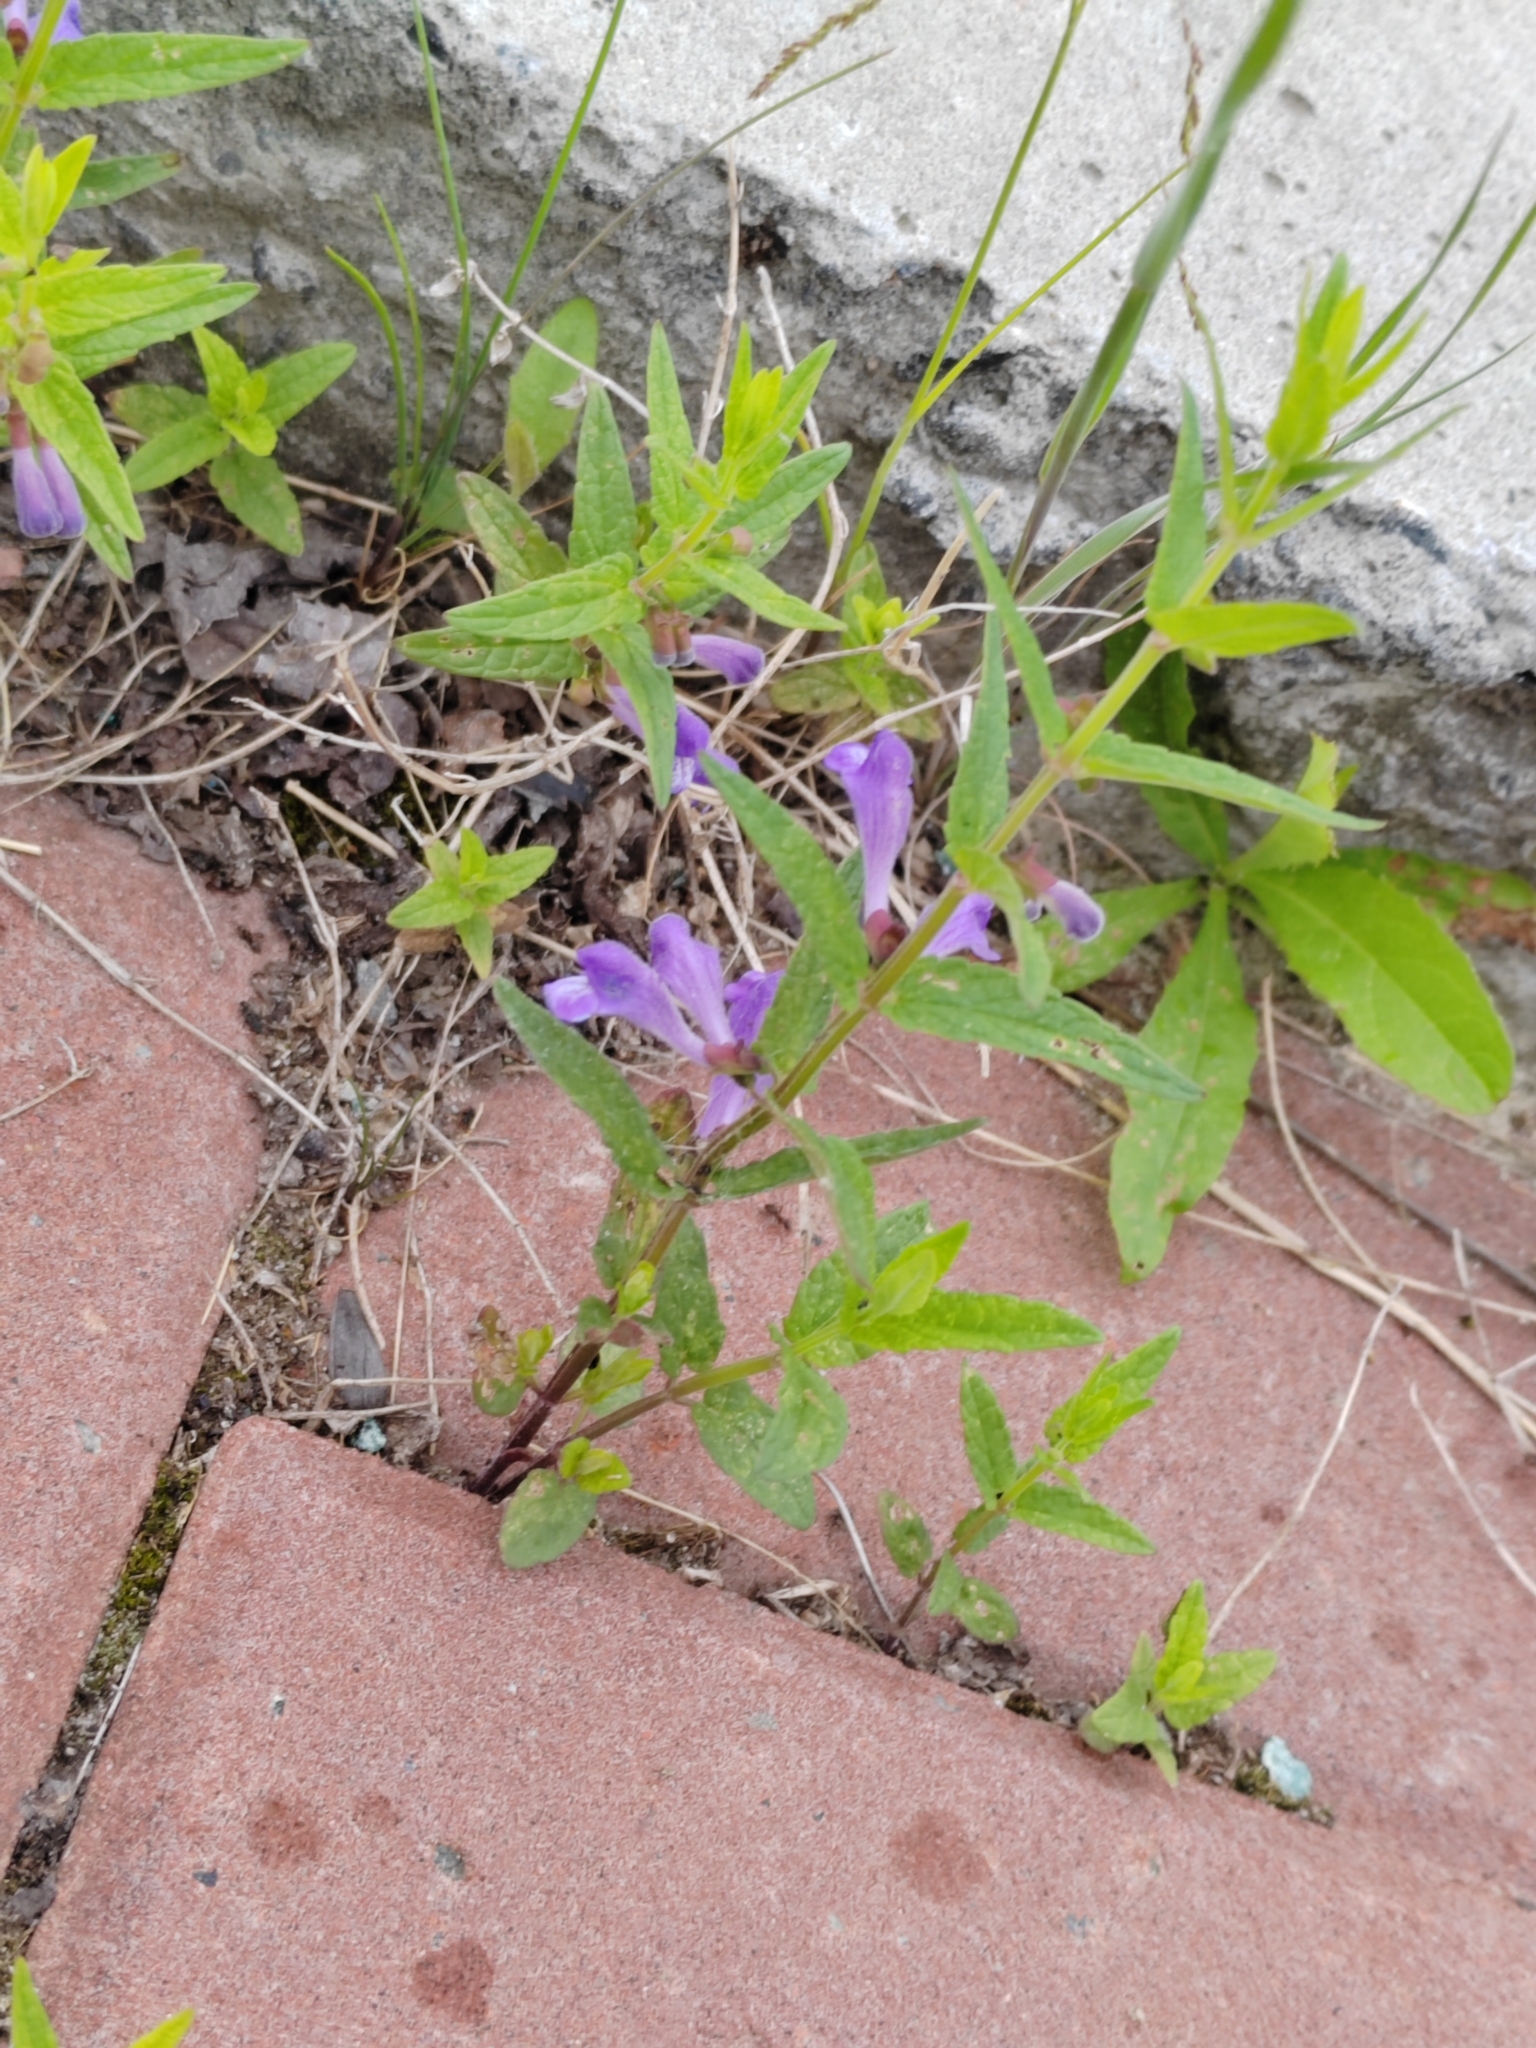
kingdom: Plantae
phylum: Tracheophyta
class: Magnoliopsida
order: Lamiales
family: Lamiaceae
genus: Scutellaria
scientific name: Scutellaria galericulata
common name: Skullcap
